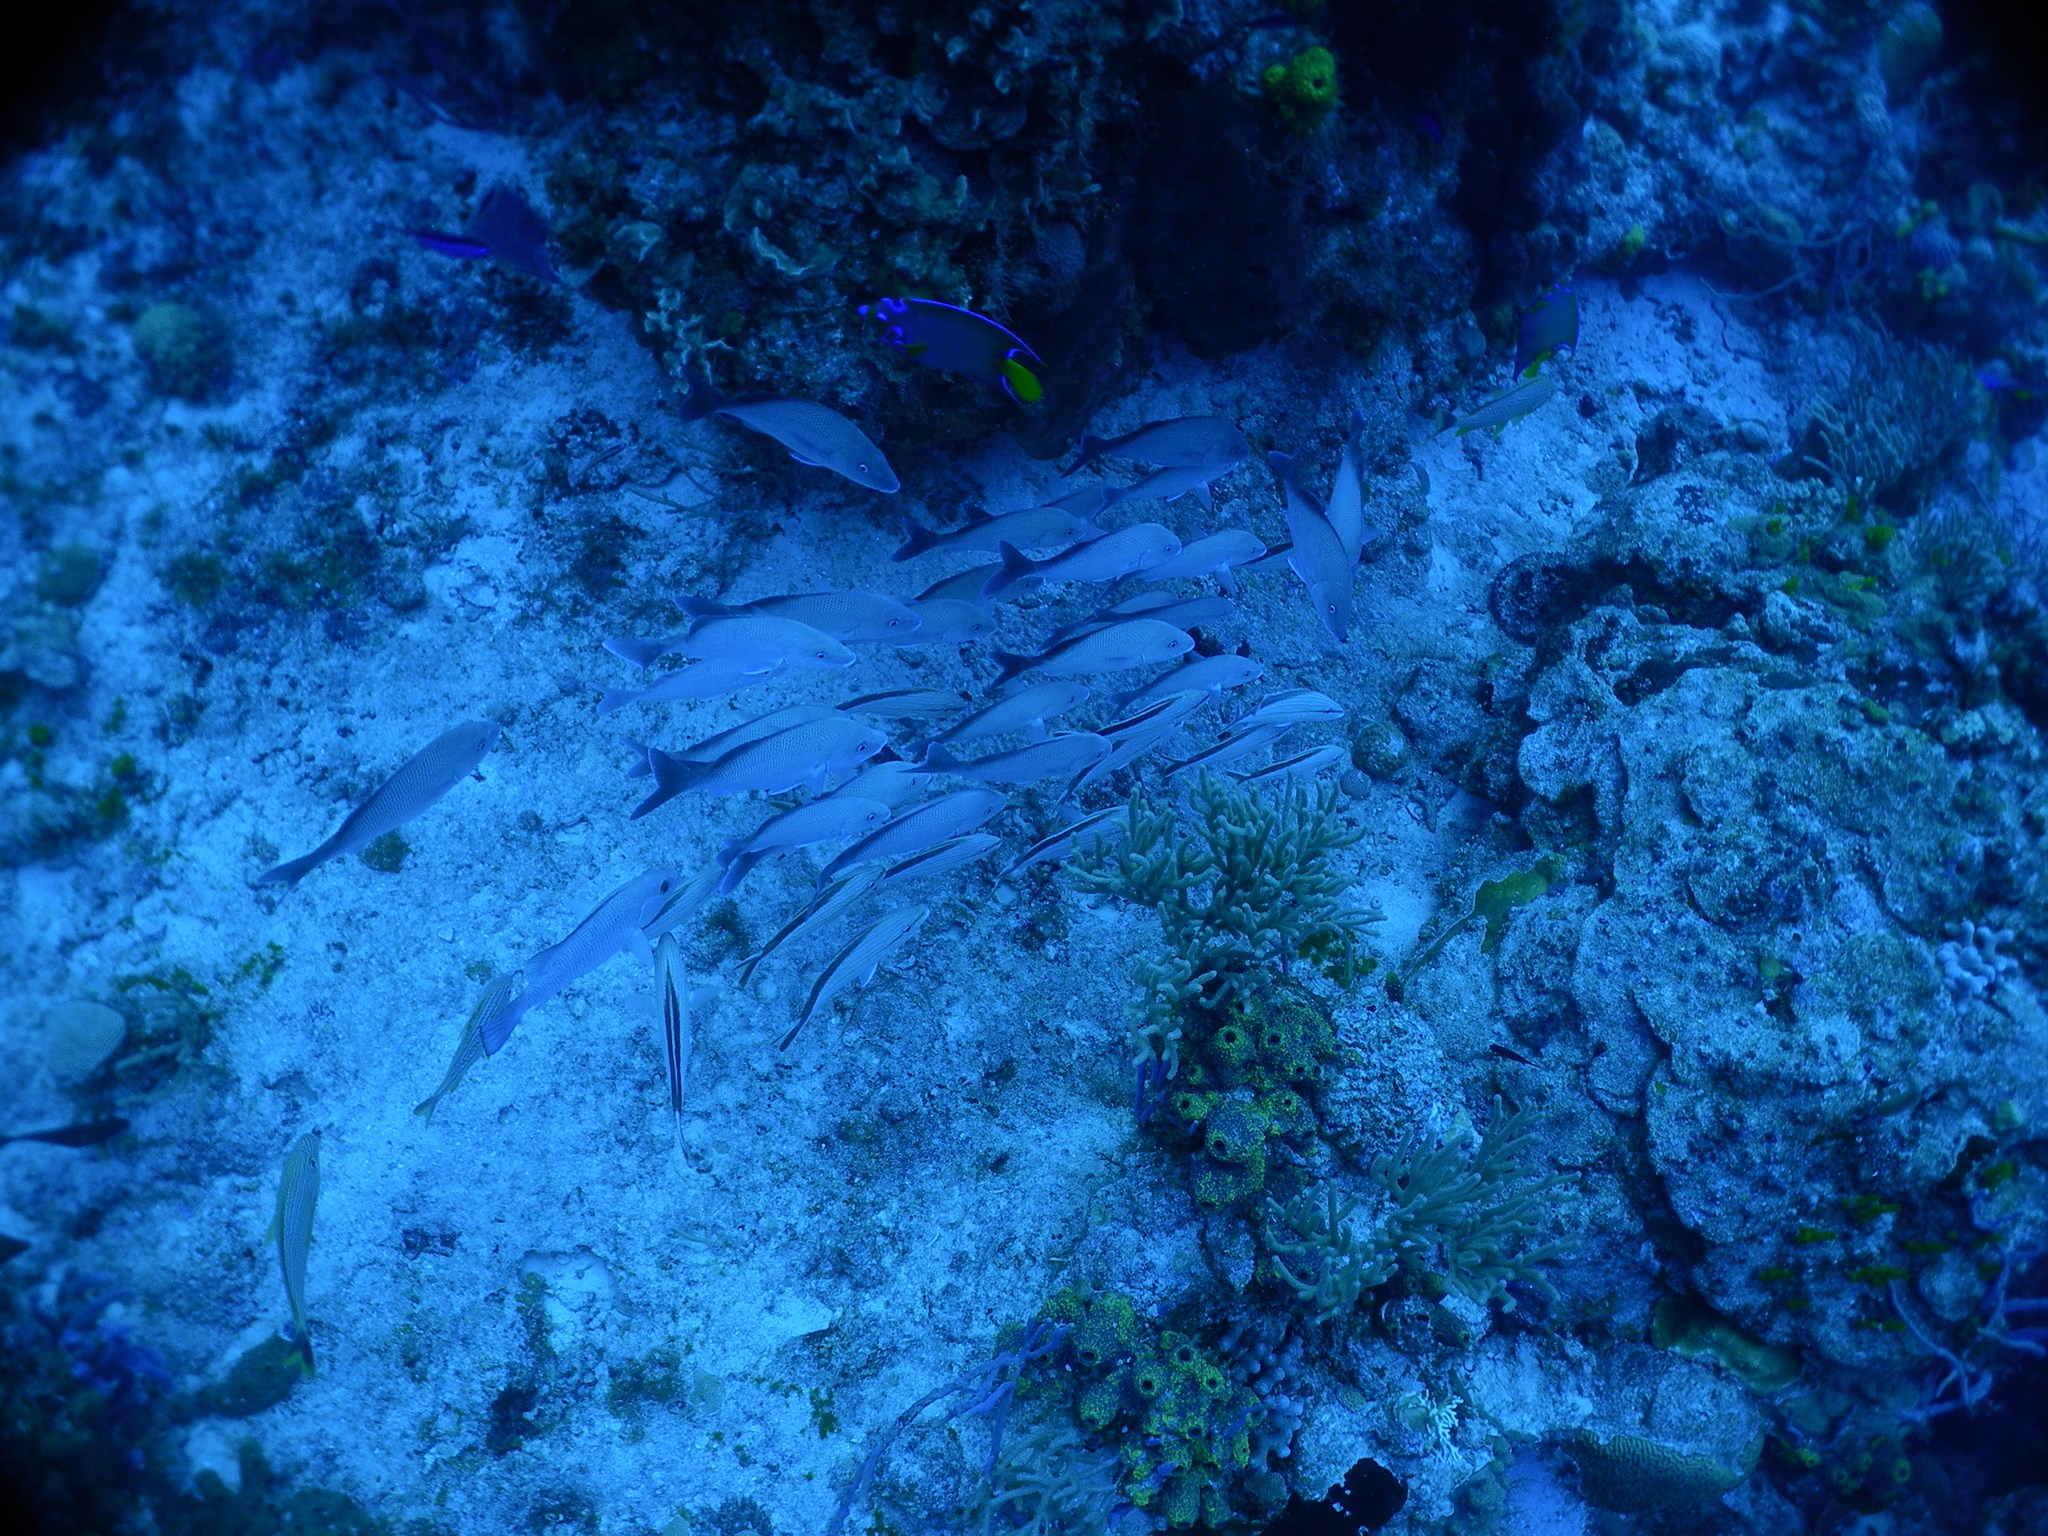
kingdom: Animalia
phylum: Chordata
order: Perciformes
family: Haemulidae
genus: Haemulon
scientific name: Haemulon album
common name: Margate
